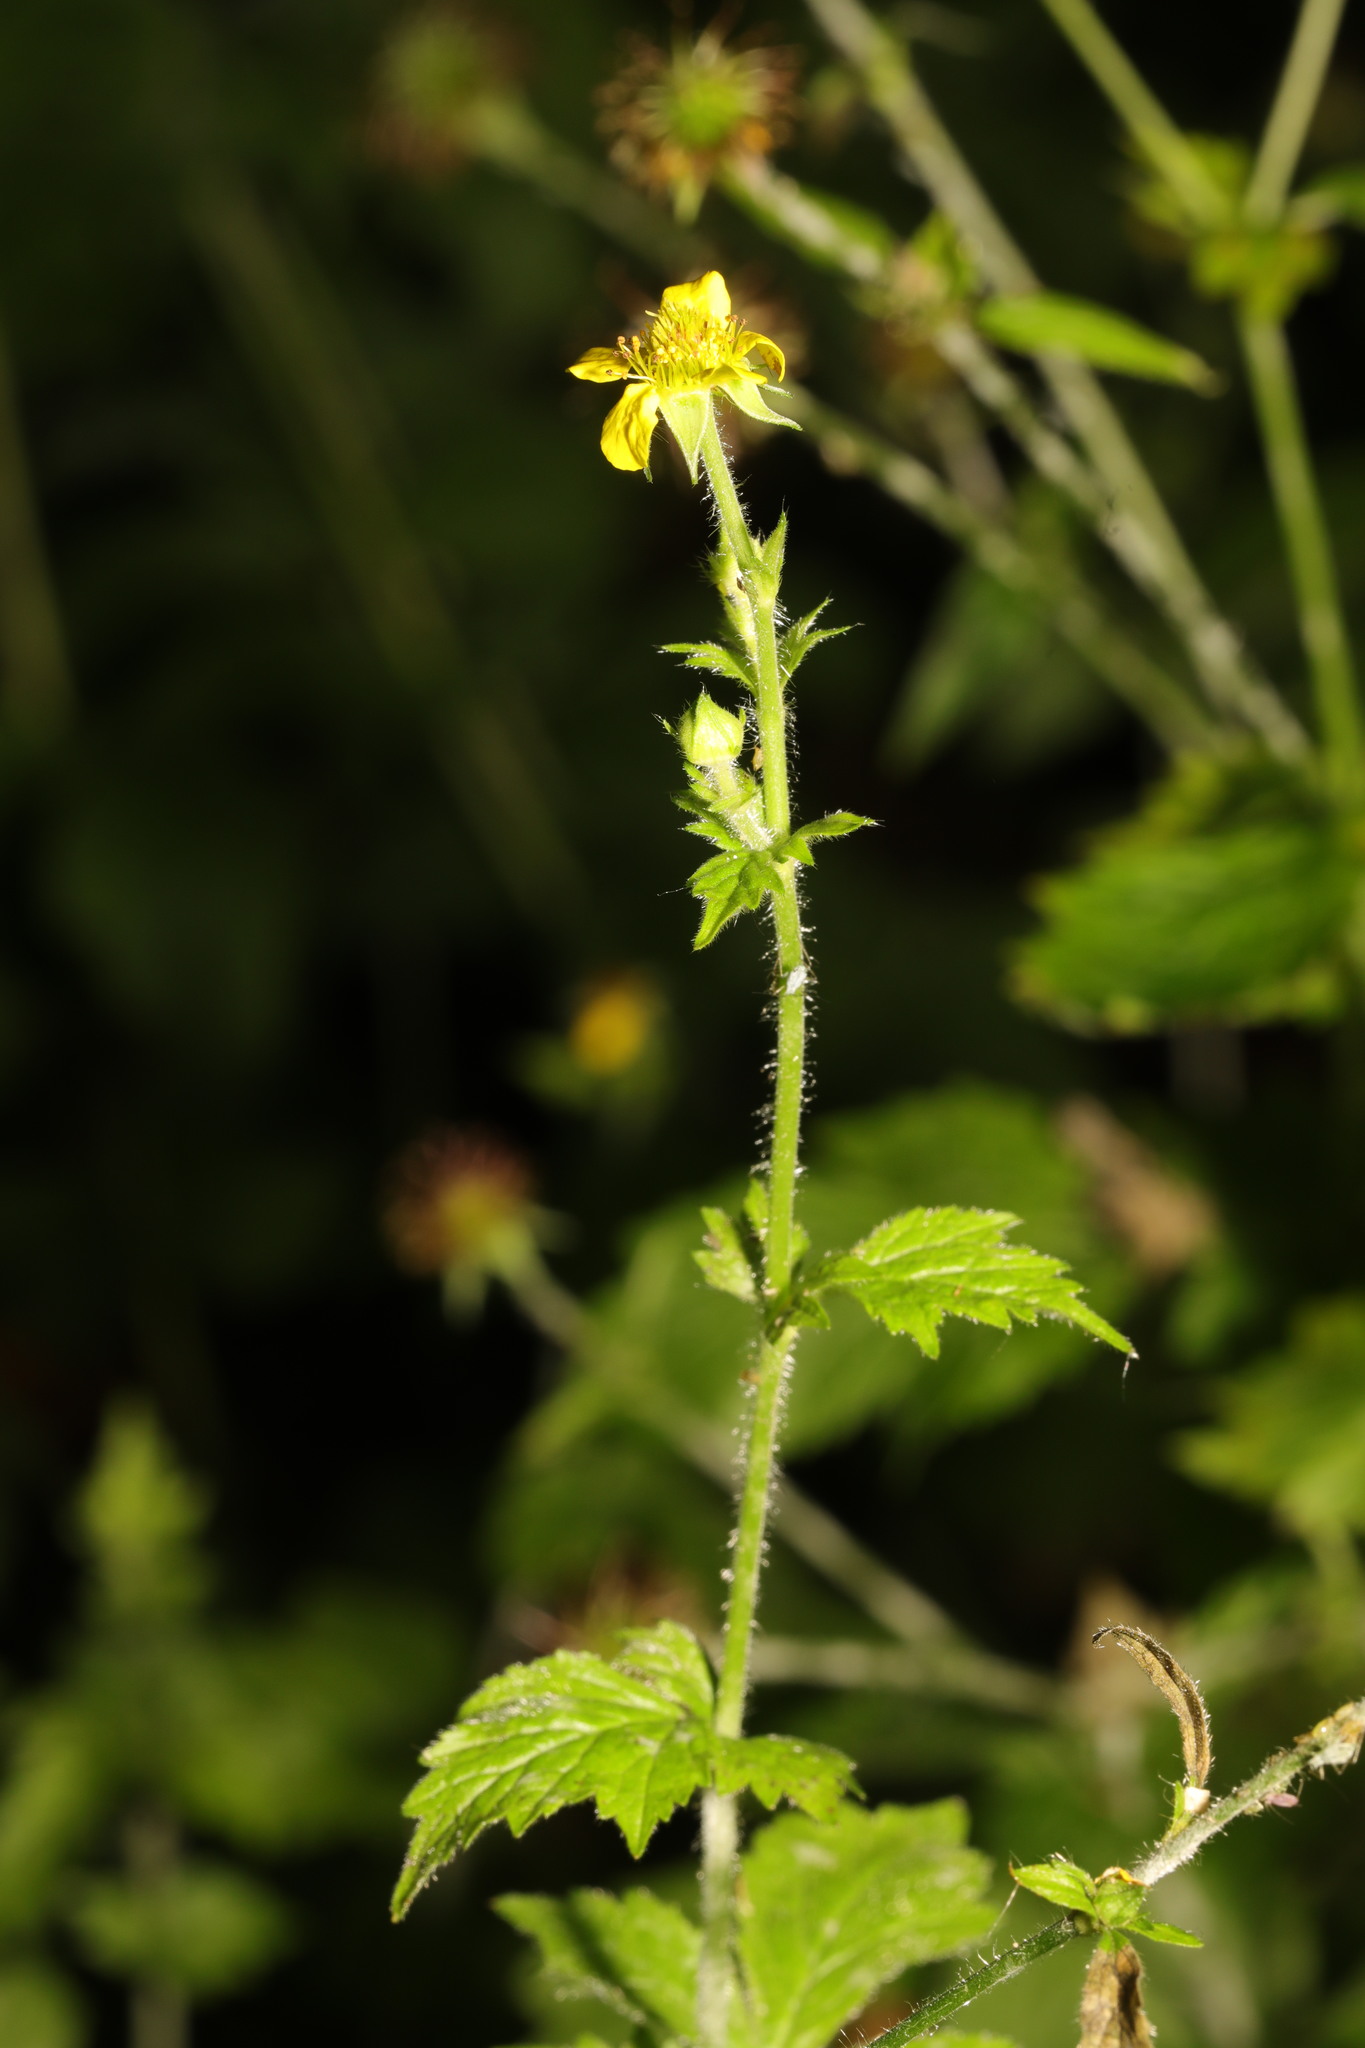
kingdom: Plantae
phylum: Tracheophyta
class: Magnoliopsida
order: Rosales
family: Rosaceae
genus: Geum
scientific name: Geum urbanum
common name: Wood avens
